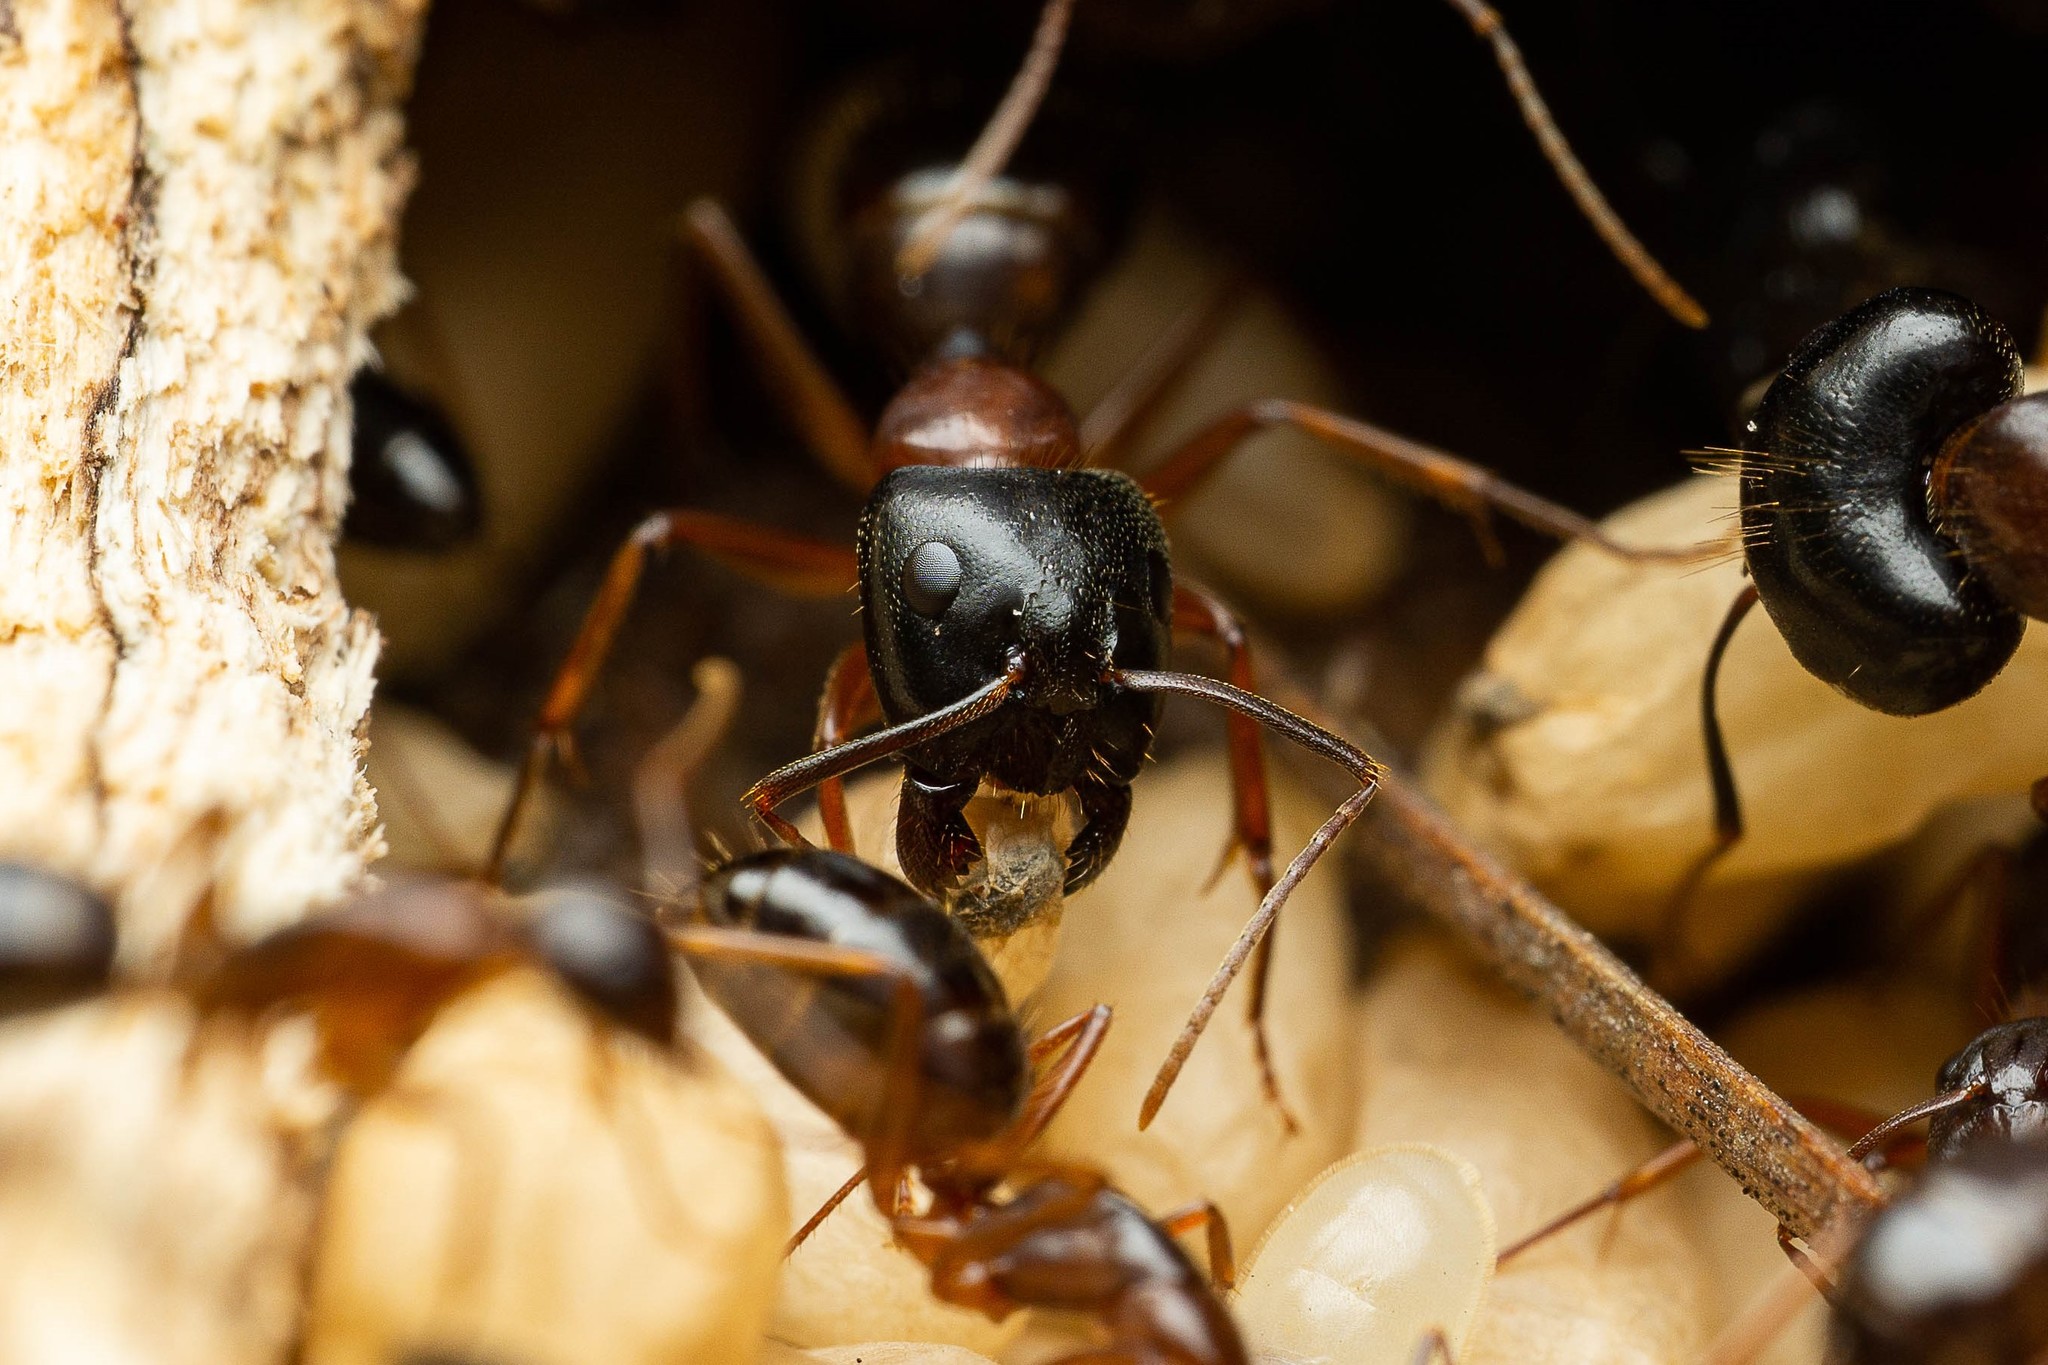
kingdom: Animalia
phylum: Arthropoda
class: Insecta
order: Hymenoptera
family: Formicidae
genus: Camponotus
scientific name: Camponotus sansabeanus
